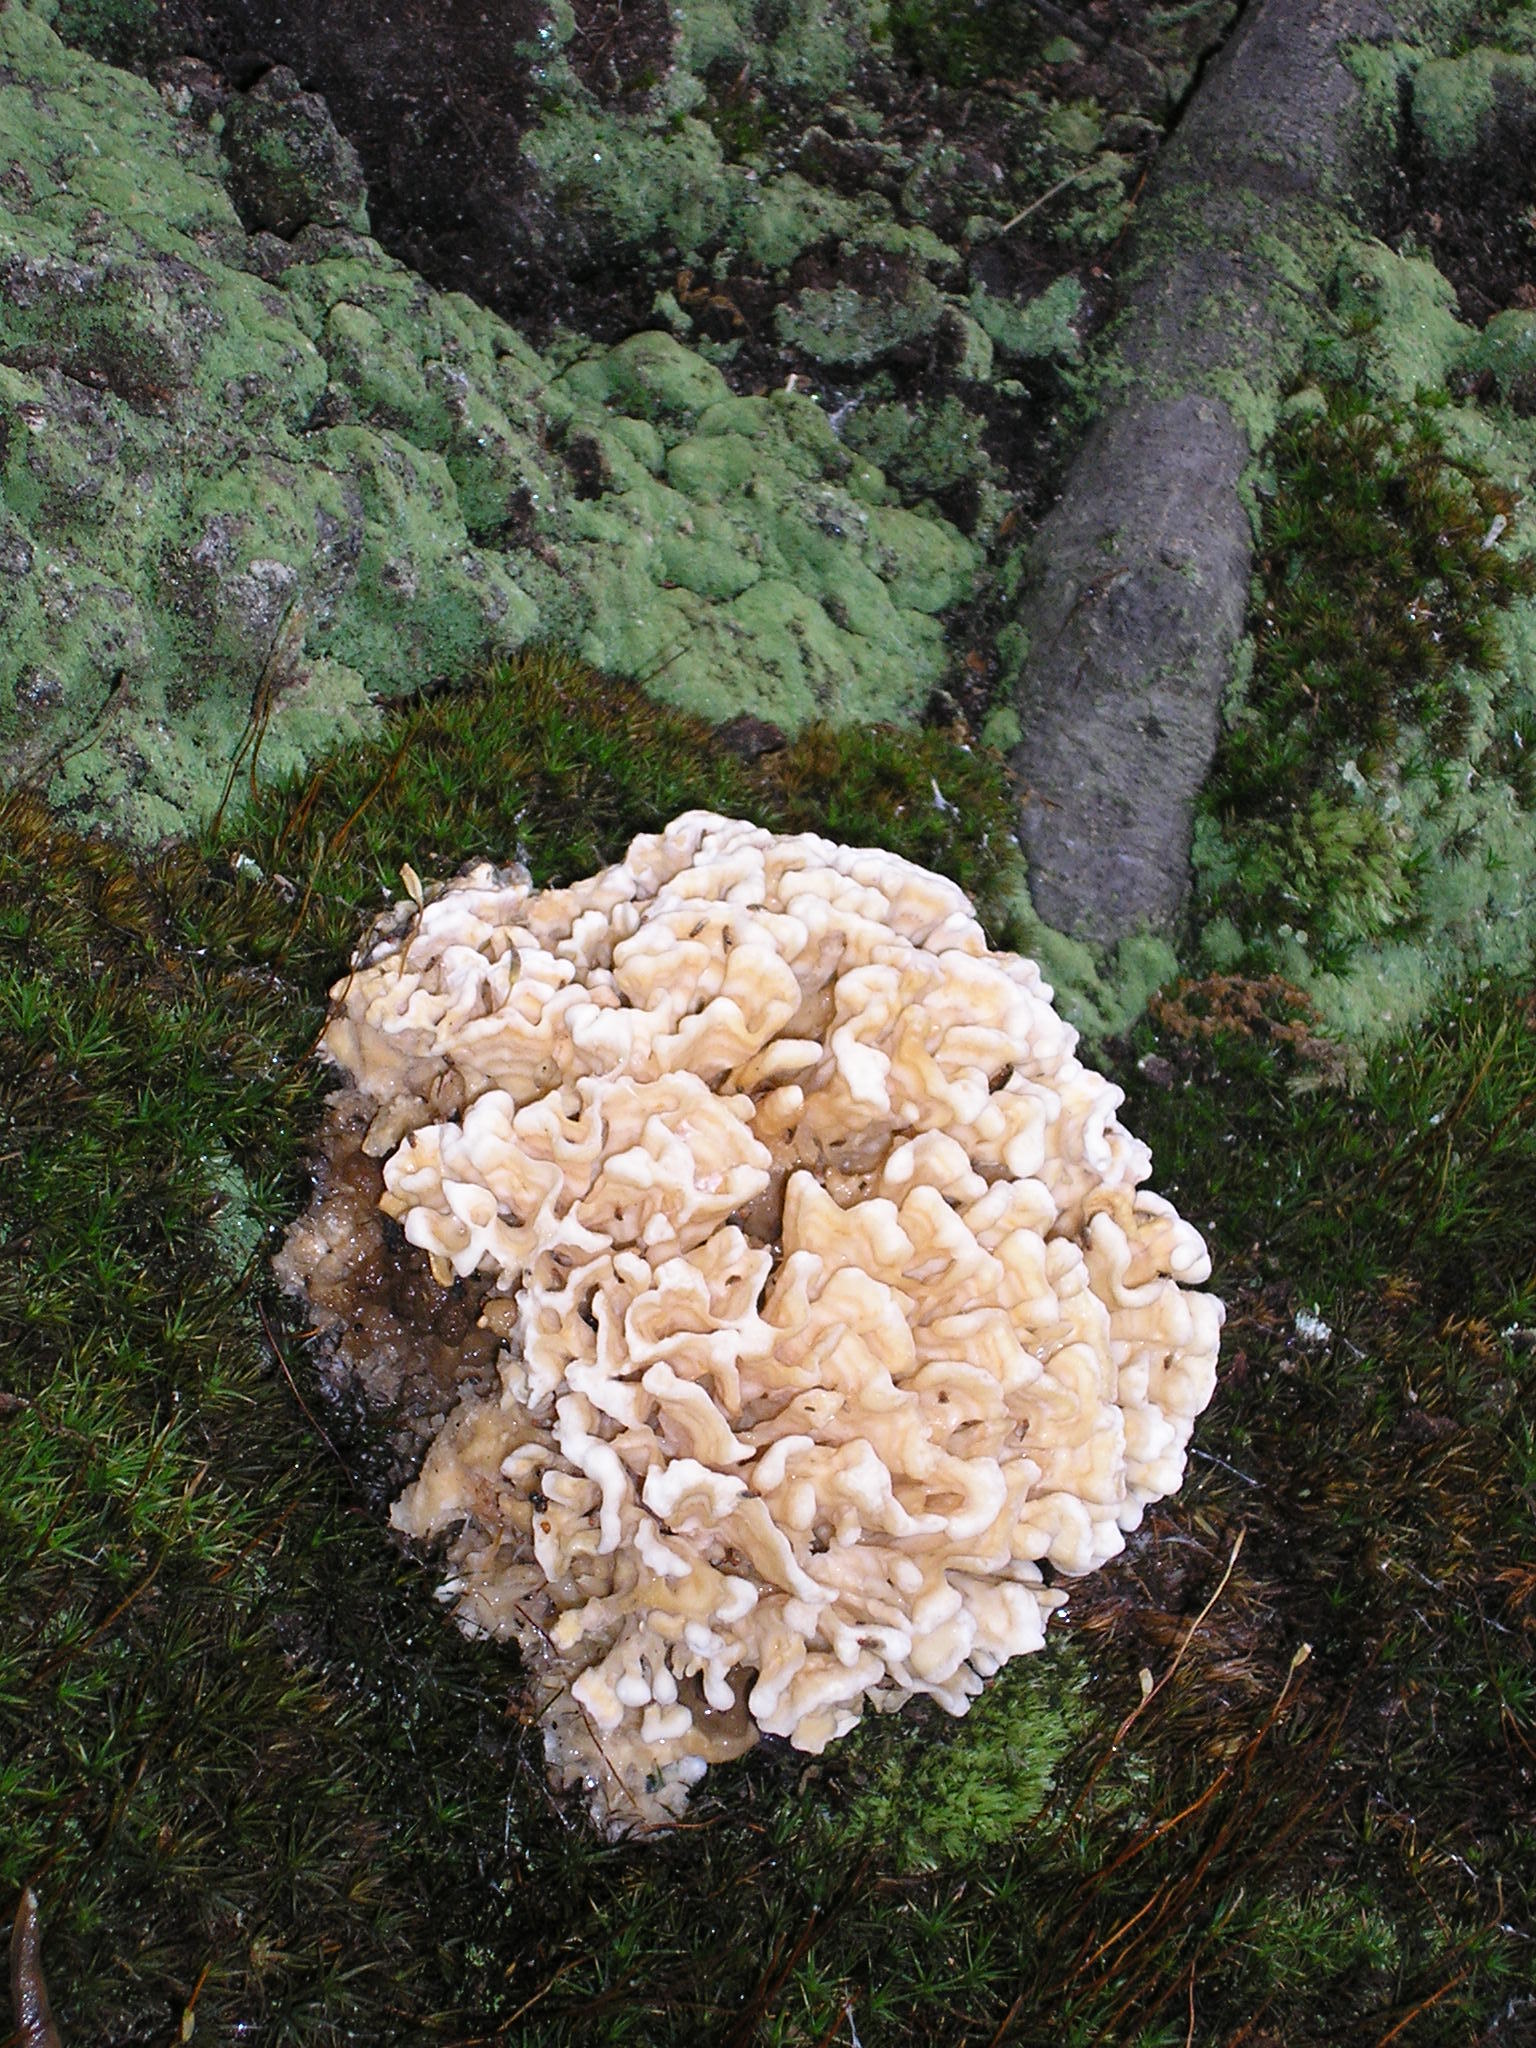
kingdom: Fungi
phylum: Basidiomycota
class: Agaricomycetes
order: Polyporales
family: Sparassidaceae
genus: Sparassis
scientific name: Sparassis spathulata
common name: Eastern cauliflower mushroom
